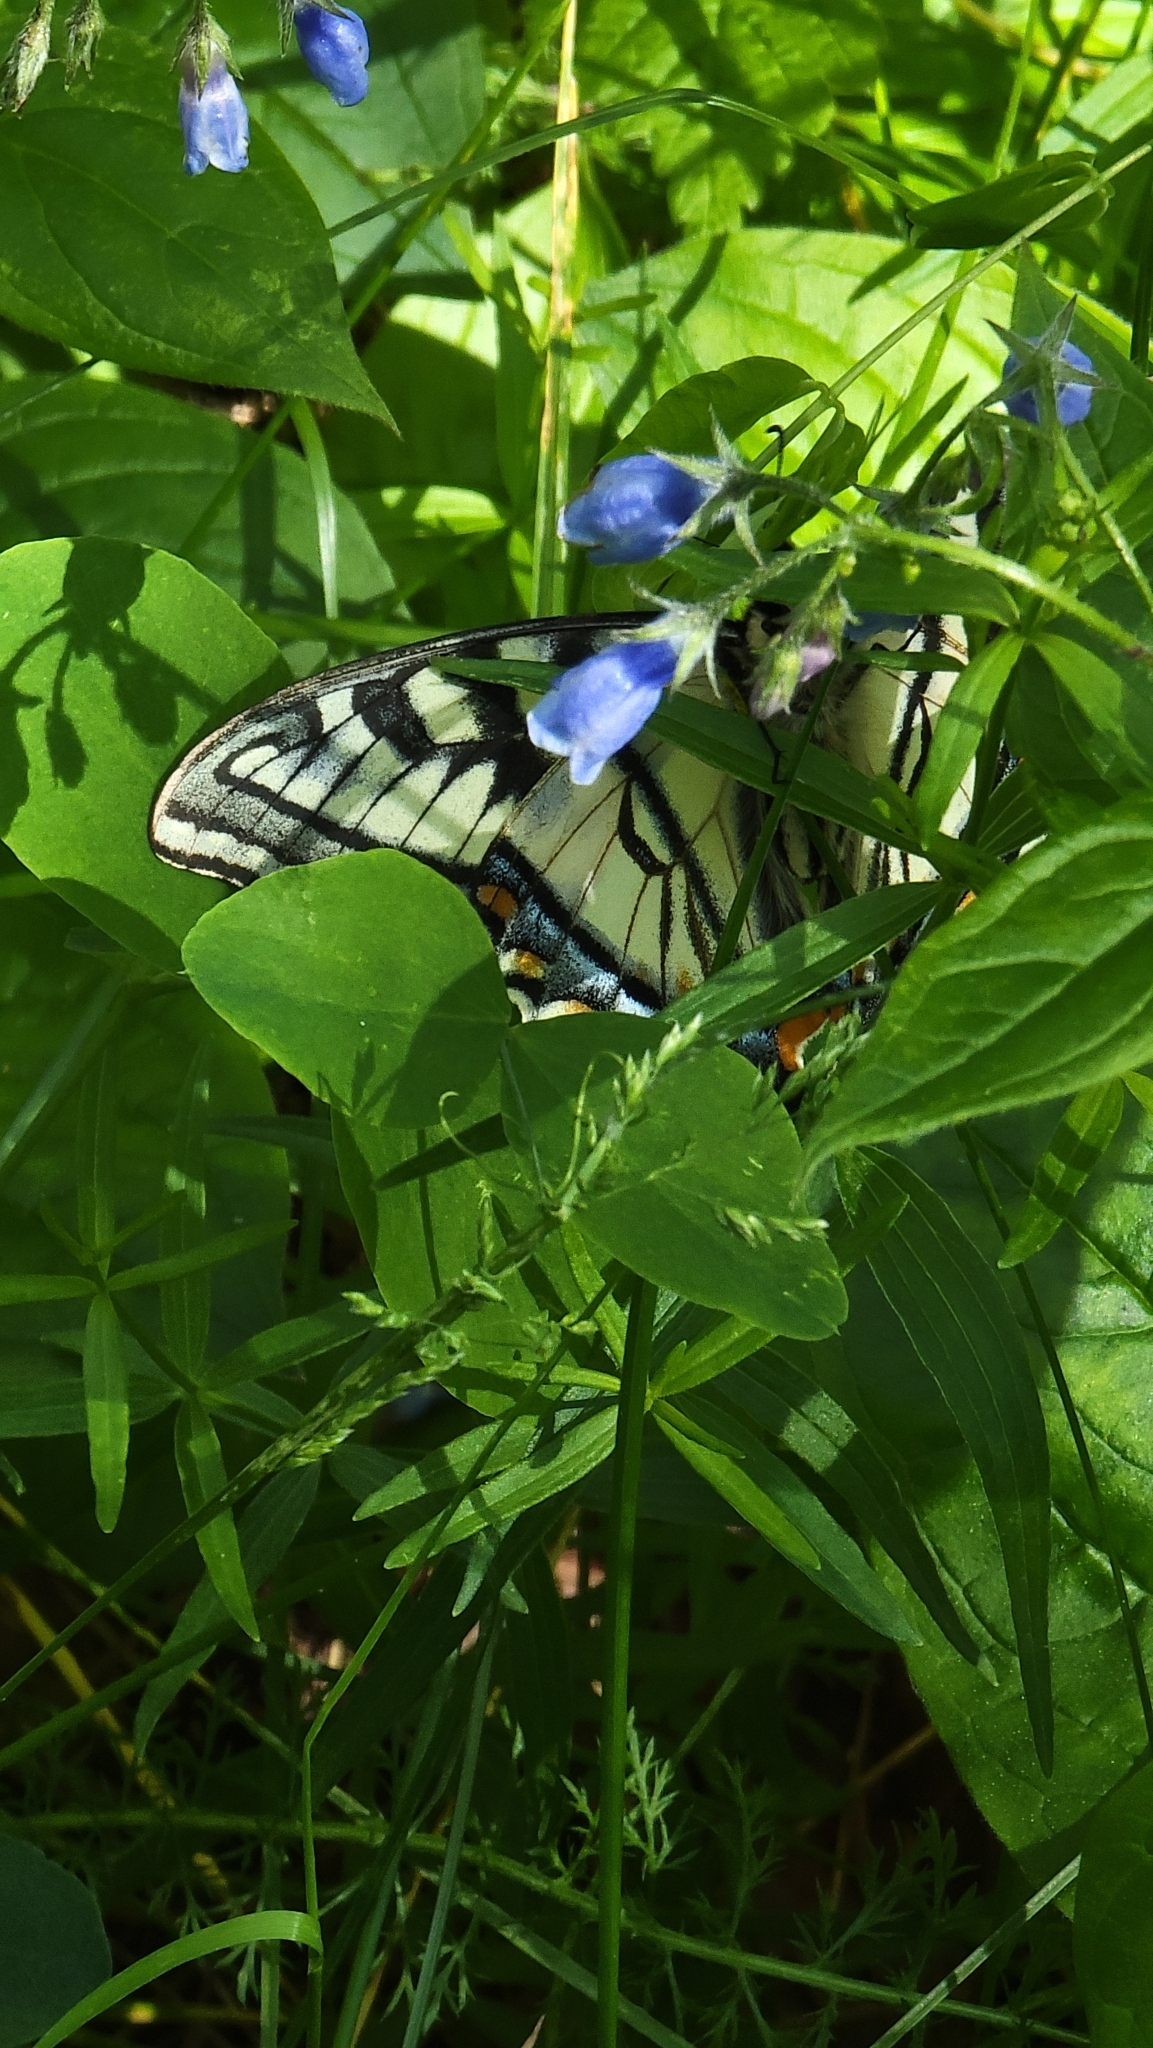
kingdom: Animalia
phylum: Arthropoda
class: Insecta
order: Lepidoptera
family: Papilionidae
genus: Papilio
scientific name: Papilio canadensis
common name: Canadian tiger swallowtail
